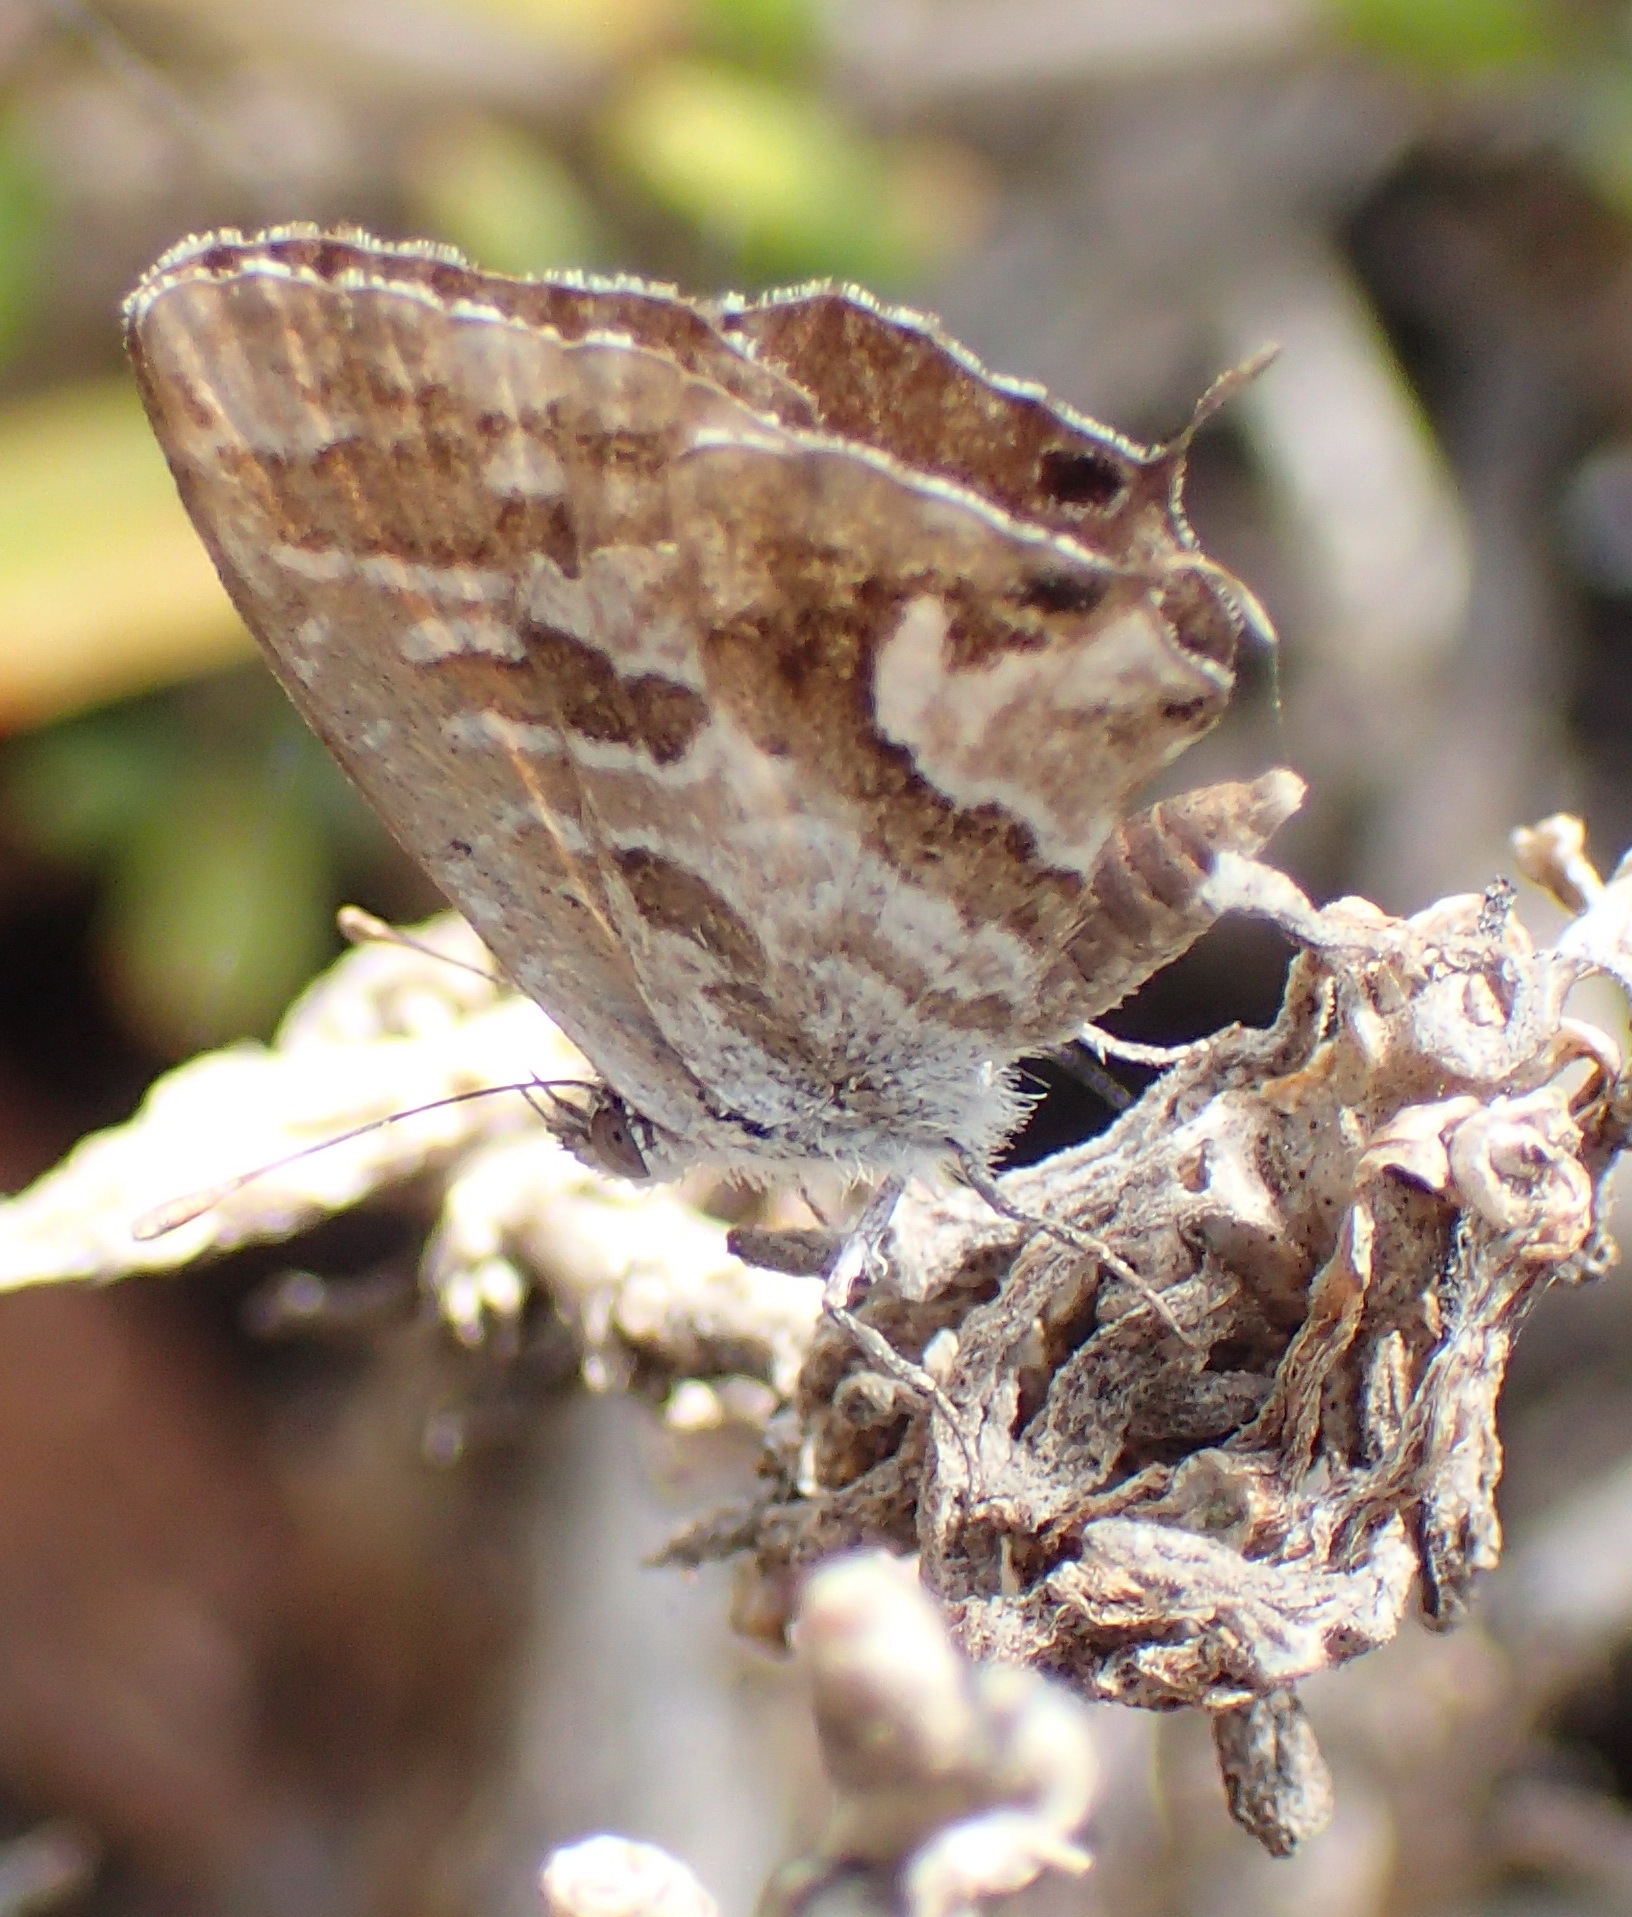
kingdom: Animalia
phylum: Arthropoda
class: Insecta
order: Lepidoptera
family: Lycaenidae
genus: Cacyreus
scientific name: Cacyreus marshalli
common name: Geranium bronze
